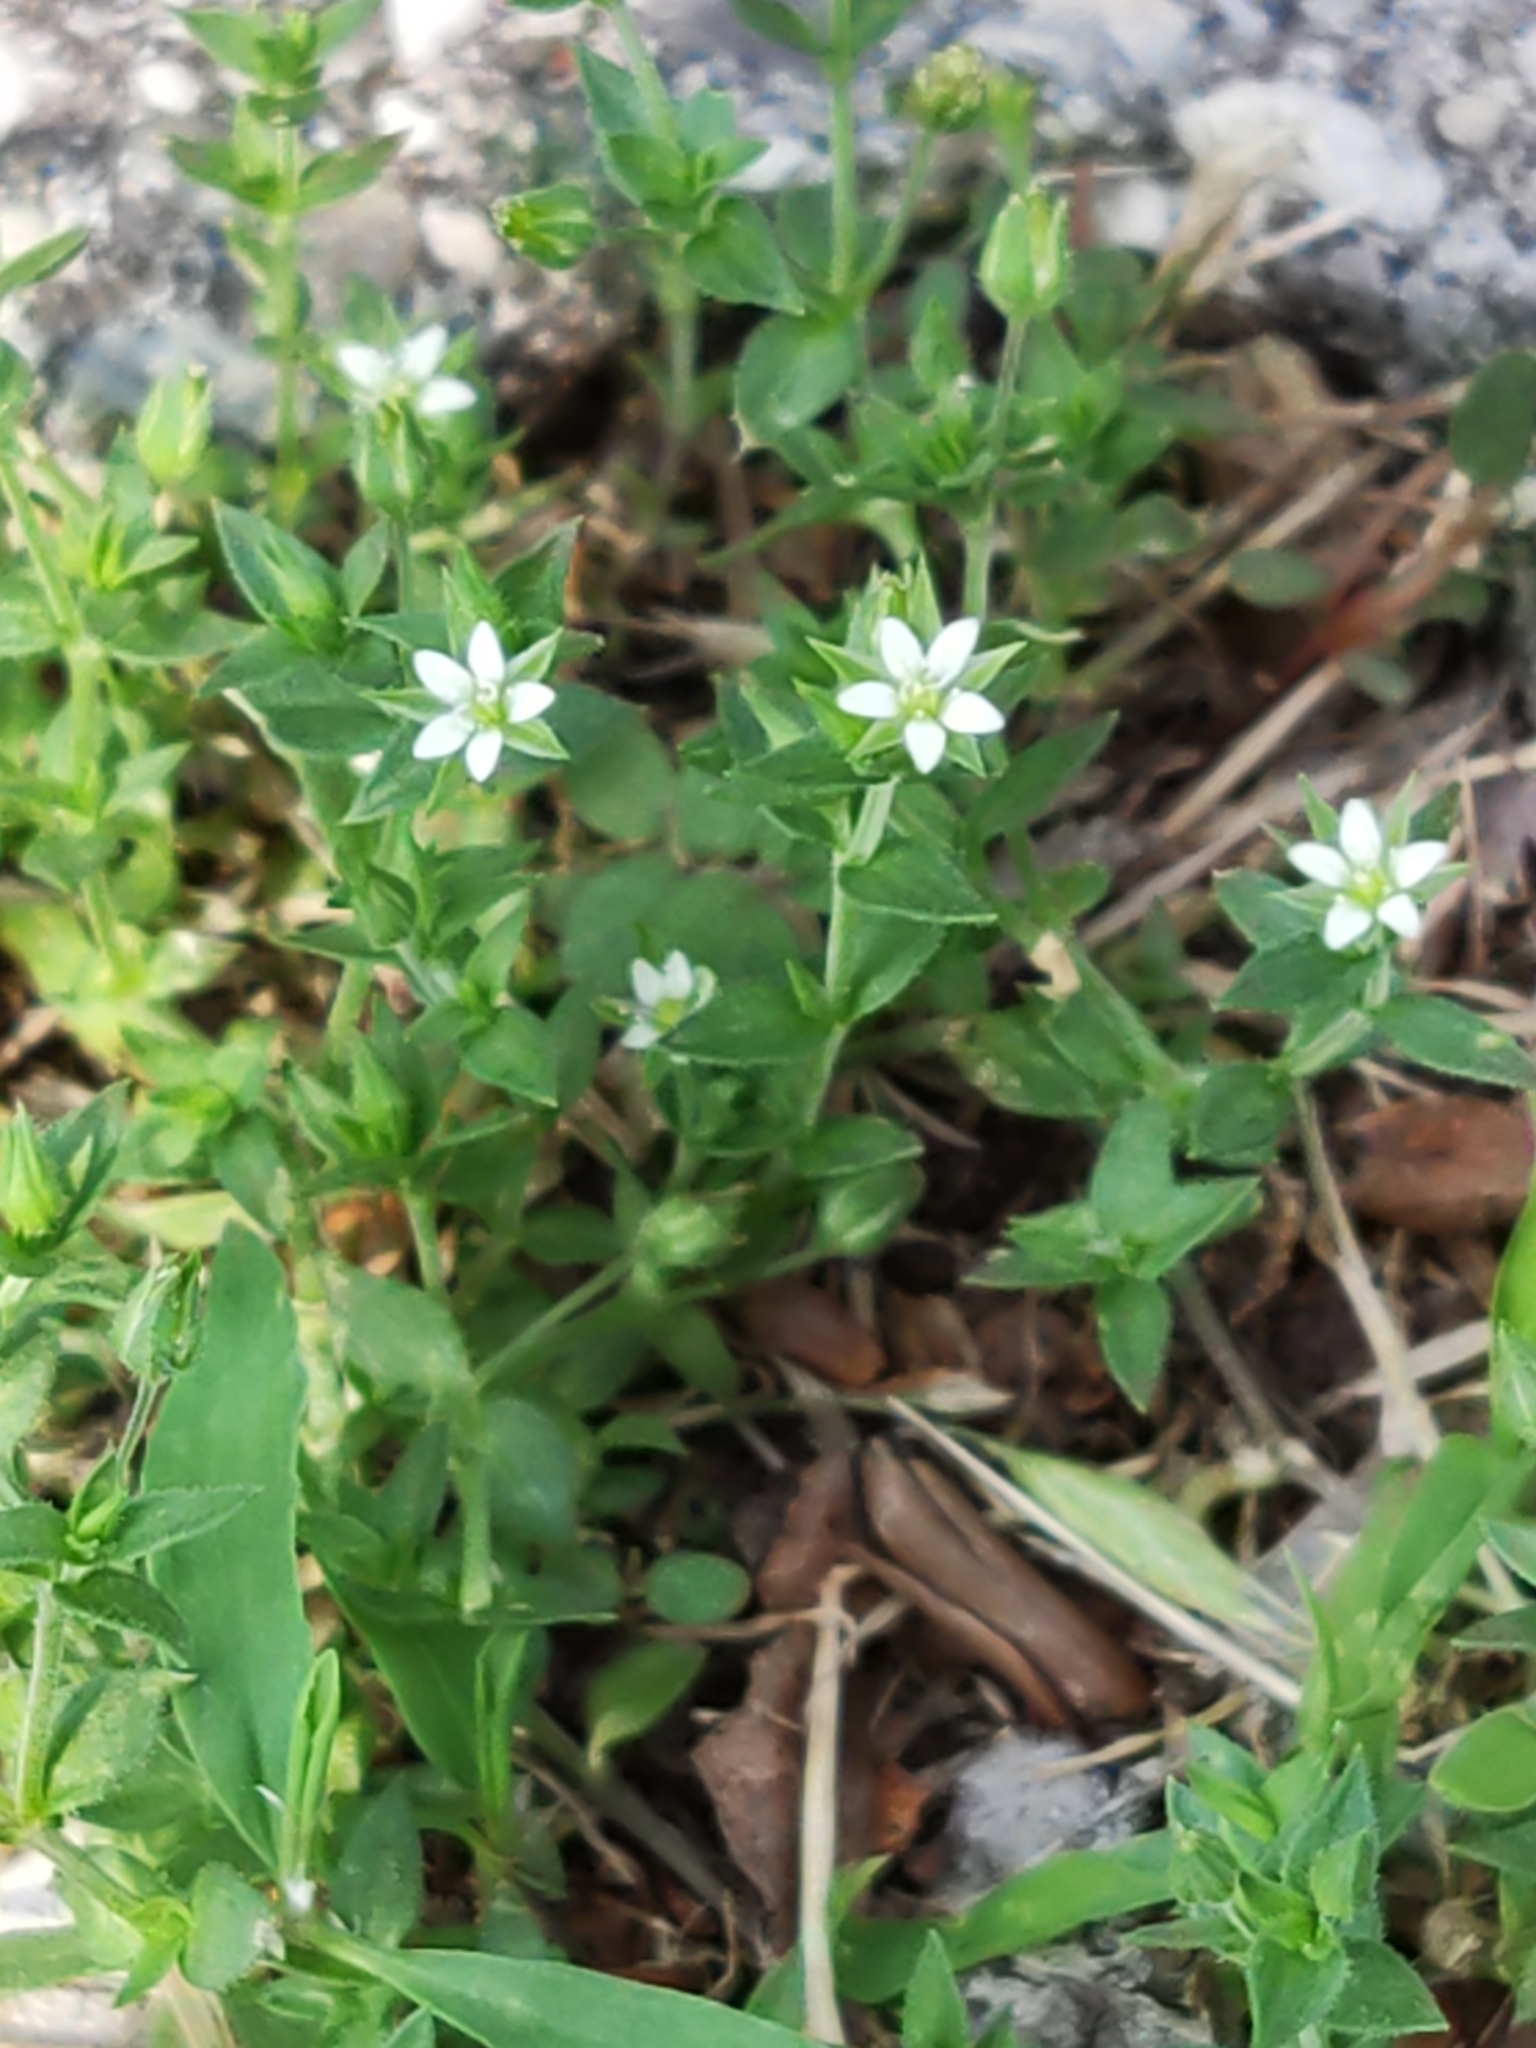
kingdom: Plantae
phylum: Tracheophyta
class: Magnoliopsida
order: Caryophyllales
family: Caryophyllaceae
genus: Arenaria
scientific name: Arenaria serpyllifolia
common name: Thyme-leaved sandwort
